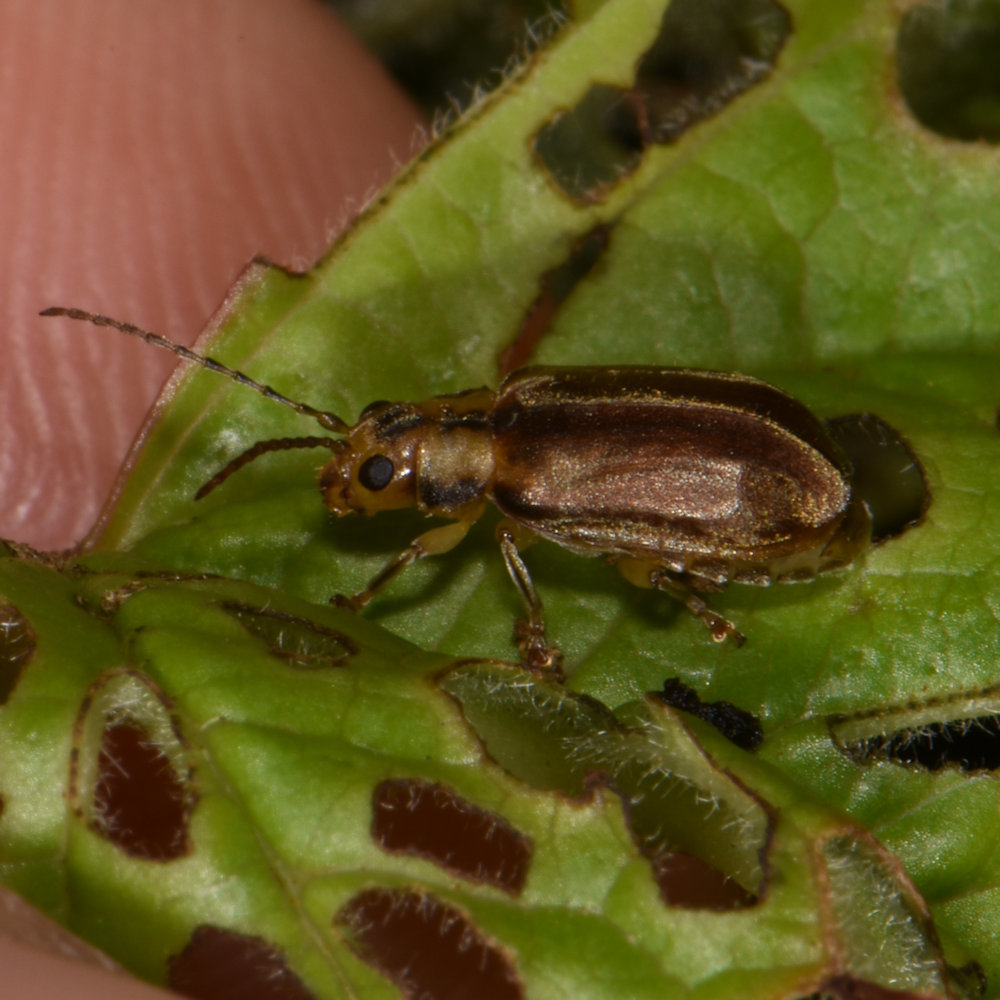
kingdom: Animalia
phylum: Arthropoda
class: Insecta
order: Coleoptera
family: Chrysomelidae
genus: Pyrrhalta
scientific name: Pyrrhalta viburni
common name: Guelder-rose leaf beetle
